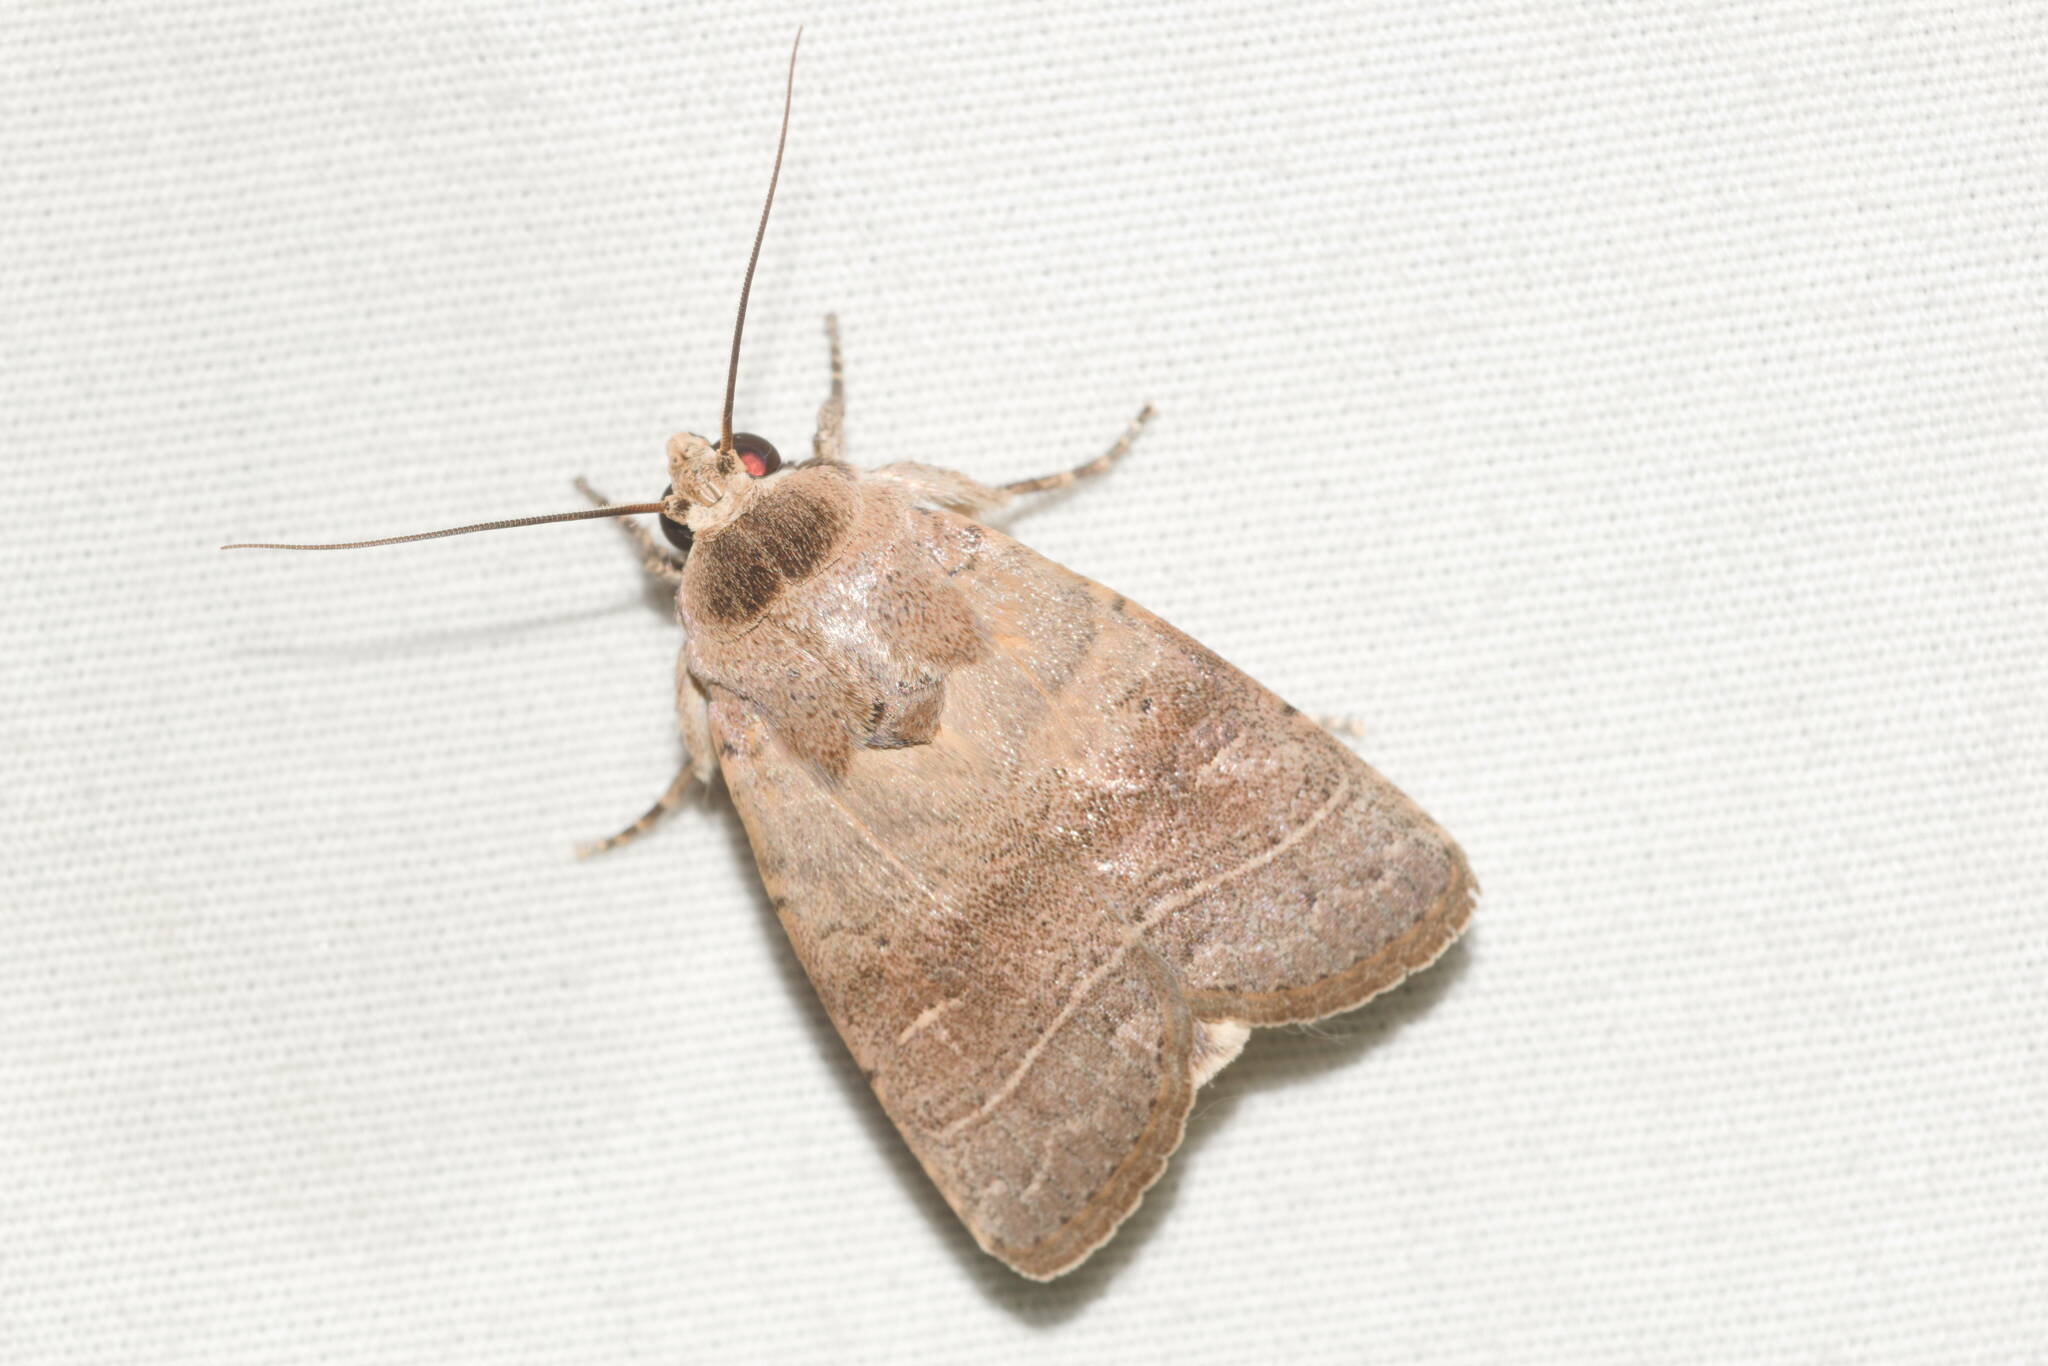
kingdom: Animalia
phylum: Arthropoda
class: Insecta
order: Lepidoptera
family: Noctuidae
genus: Athetis
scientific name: Athetis thoracica
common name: Cutworm
